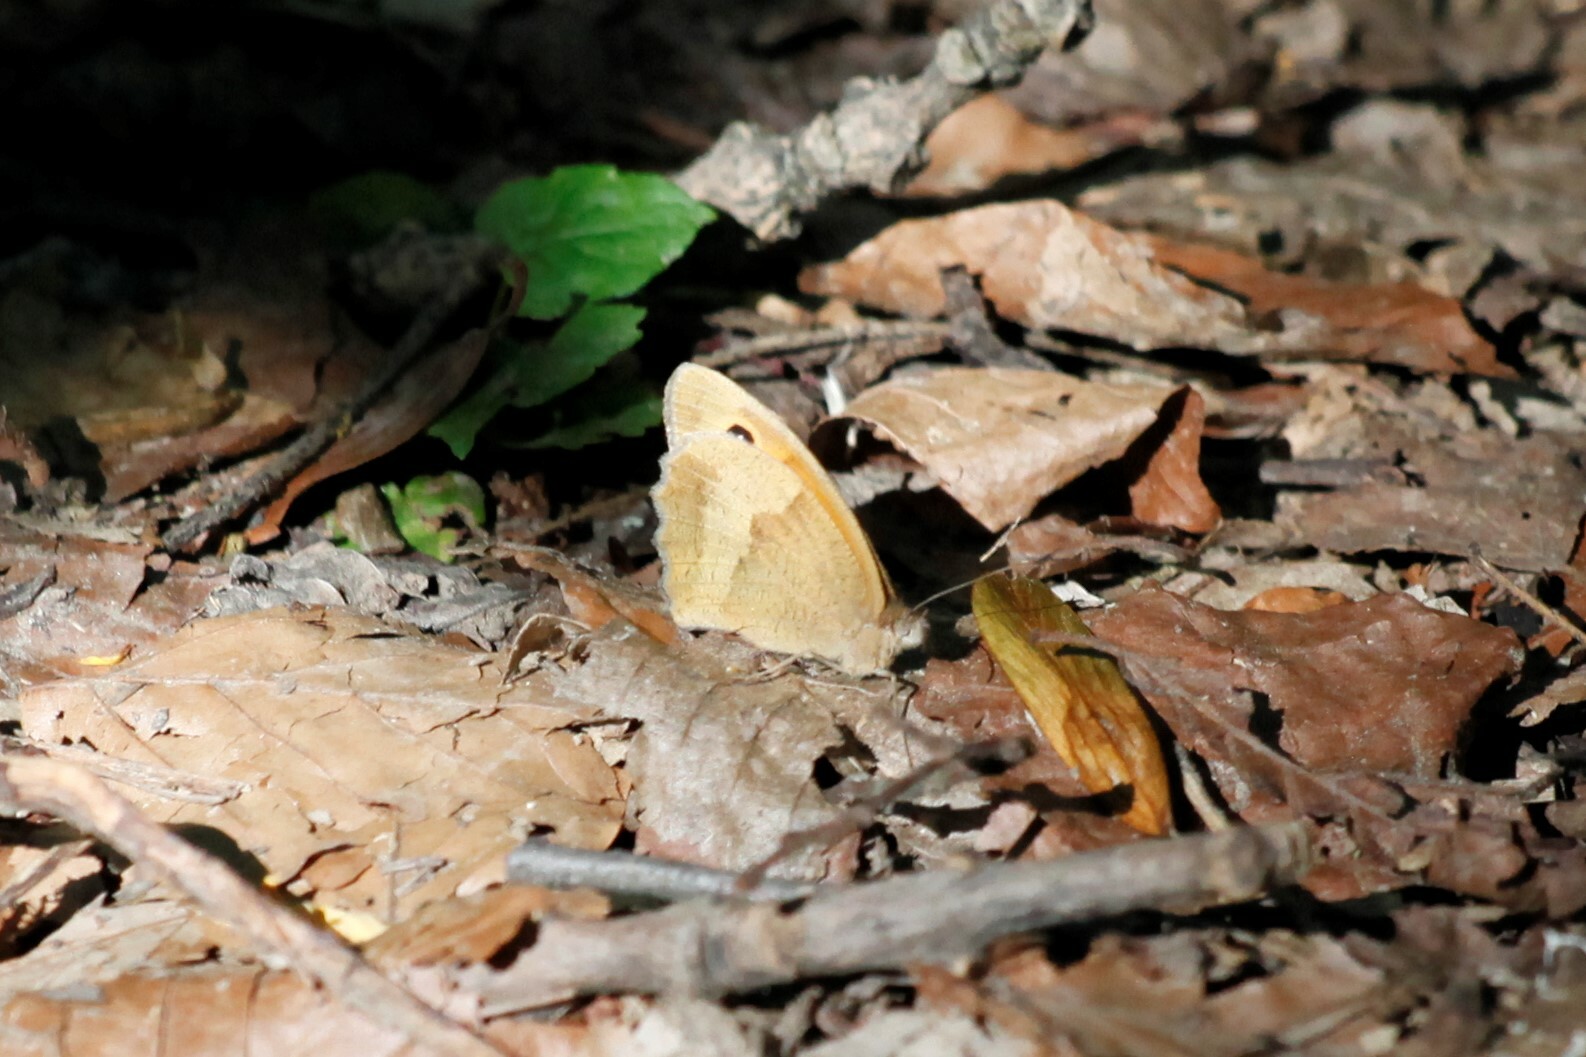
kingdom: Animalia
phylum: Arthropoda
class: Insecta
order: Lepidoptera
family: Nymphalidae
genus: Maniola
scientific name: Maniola jurtina
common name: Meadow brown
